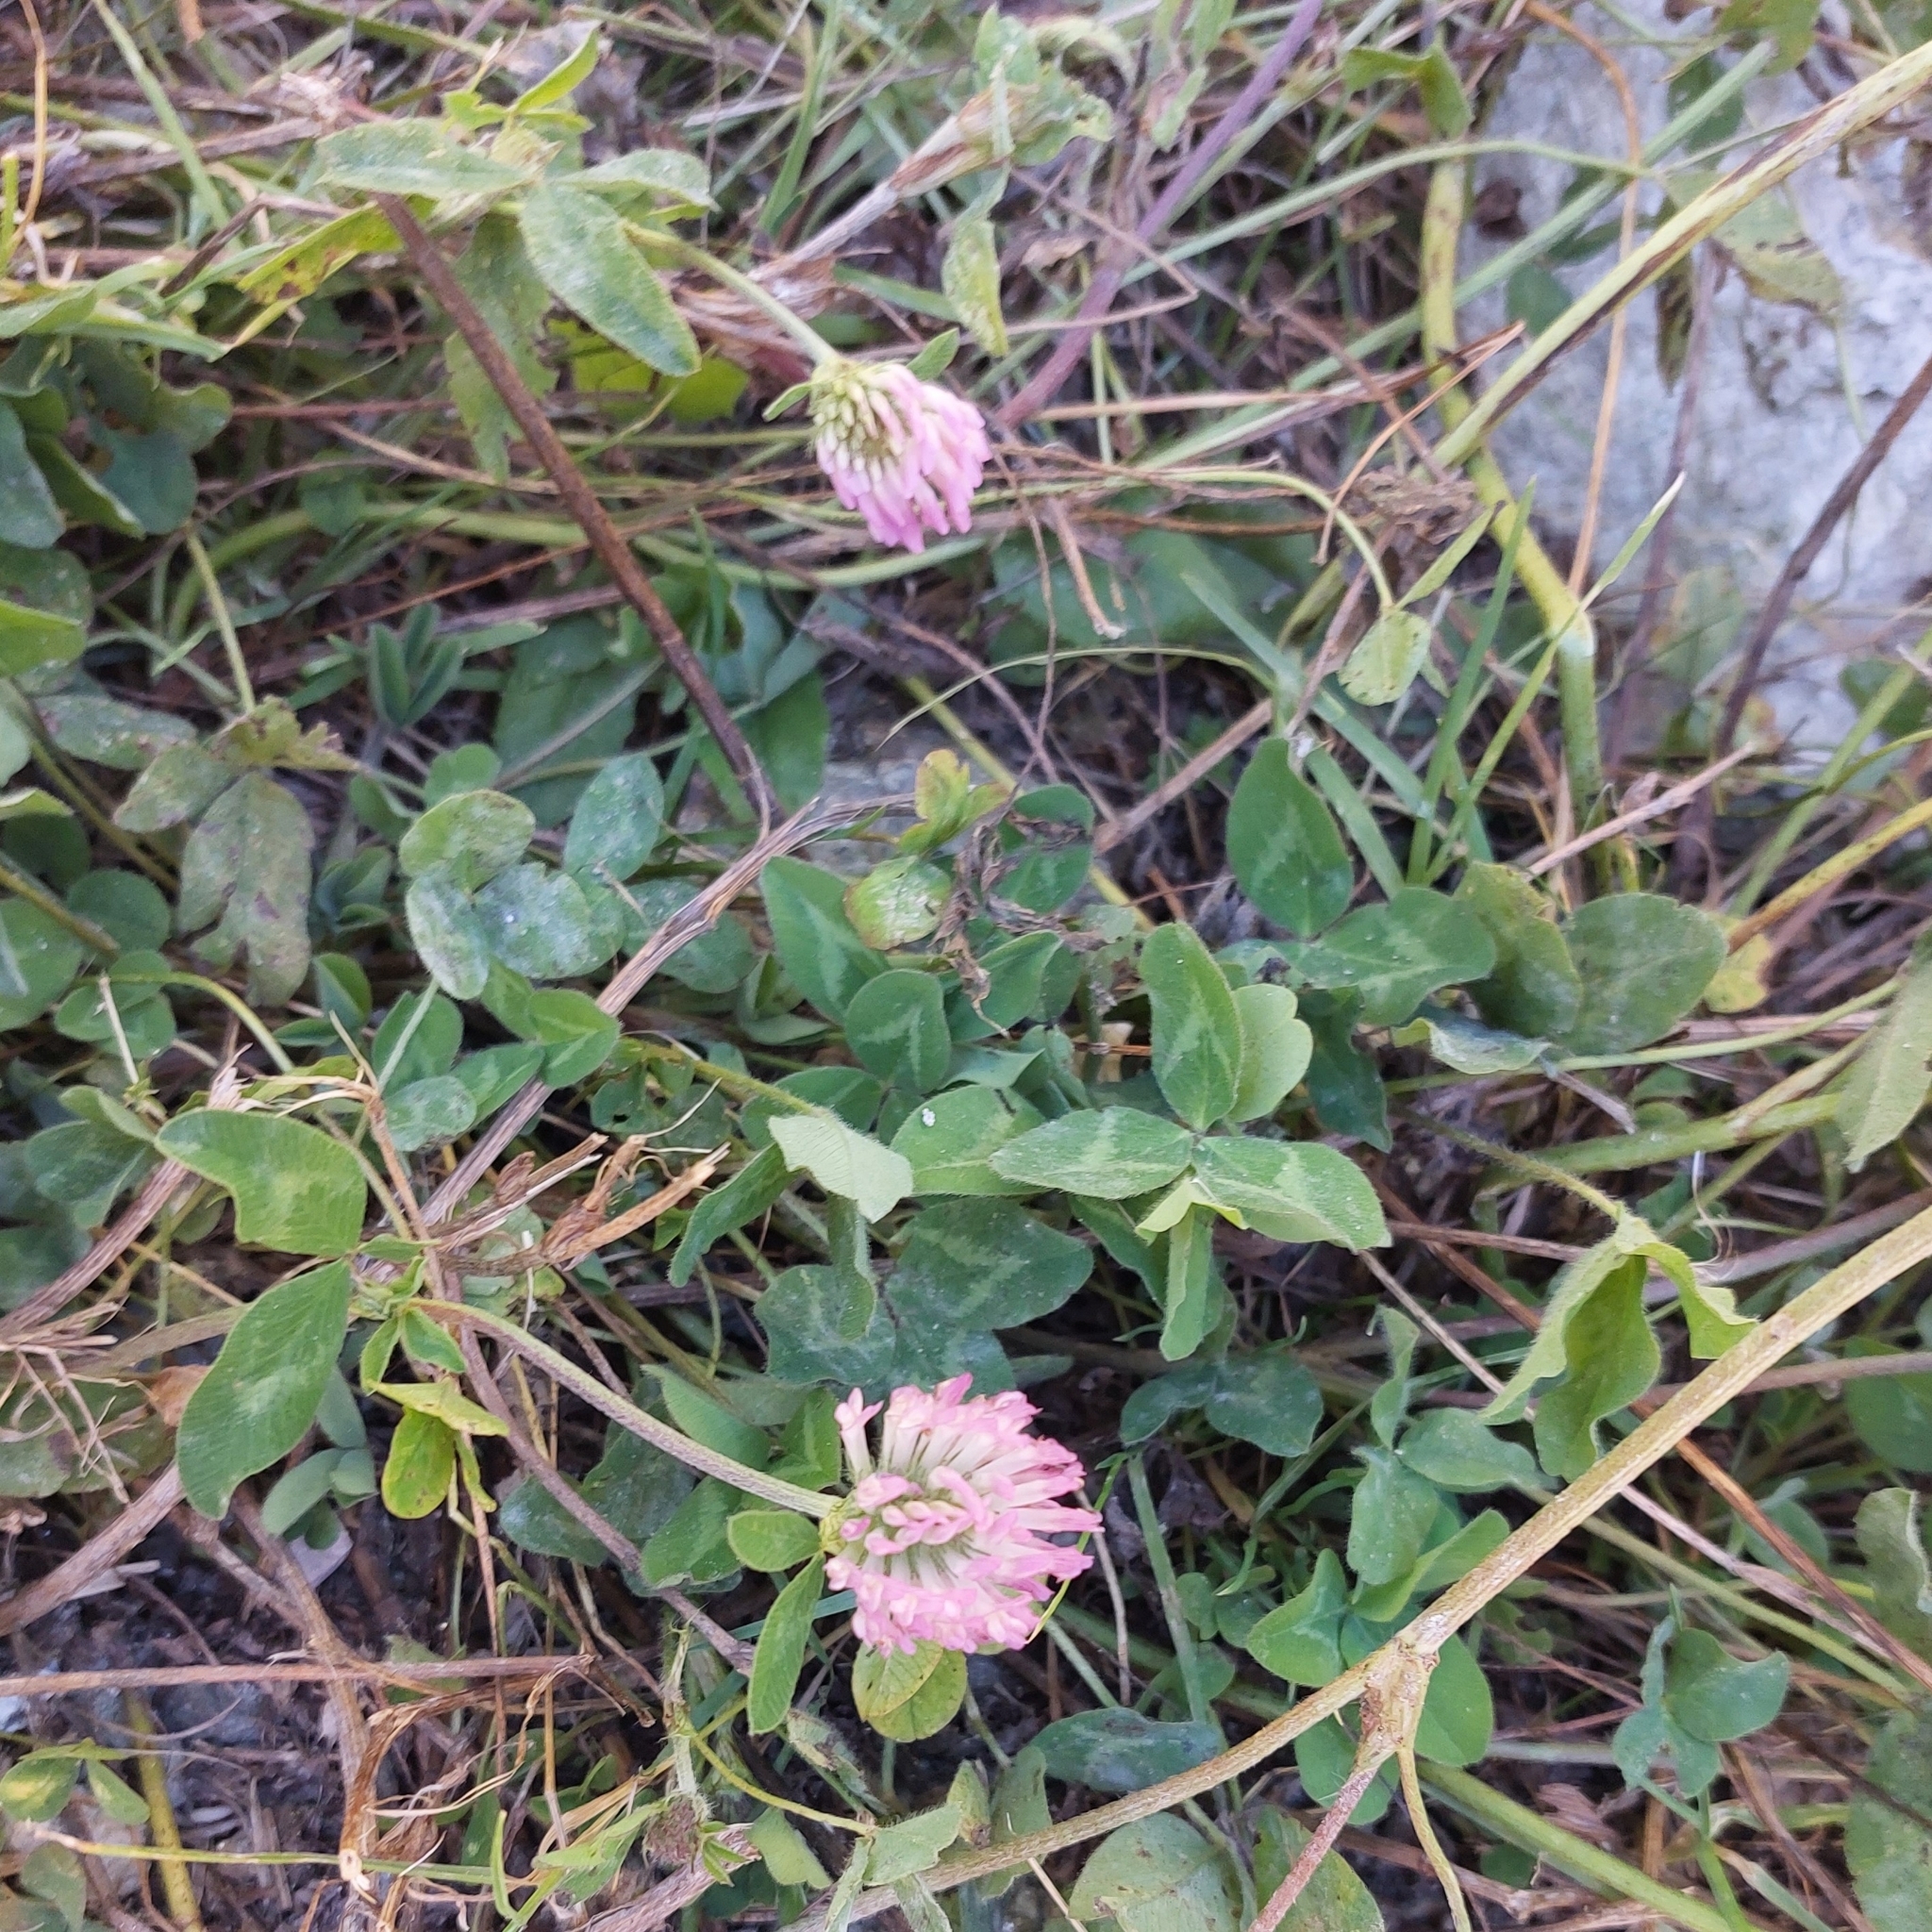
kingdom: Plantae
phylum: Tracheophyta
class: Magnoliopsida
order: Fabales
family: Fabaceae
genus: Trifolium
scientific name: Trifolium pratense
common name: Red clover
